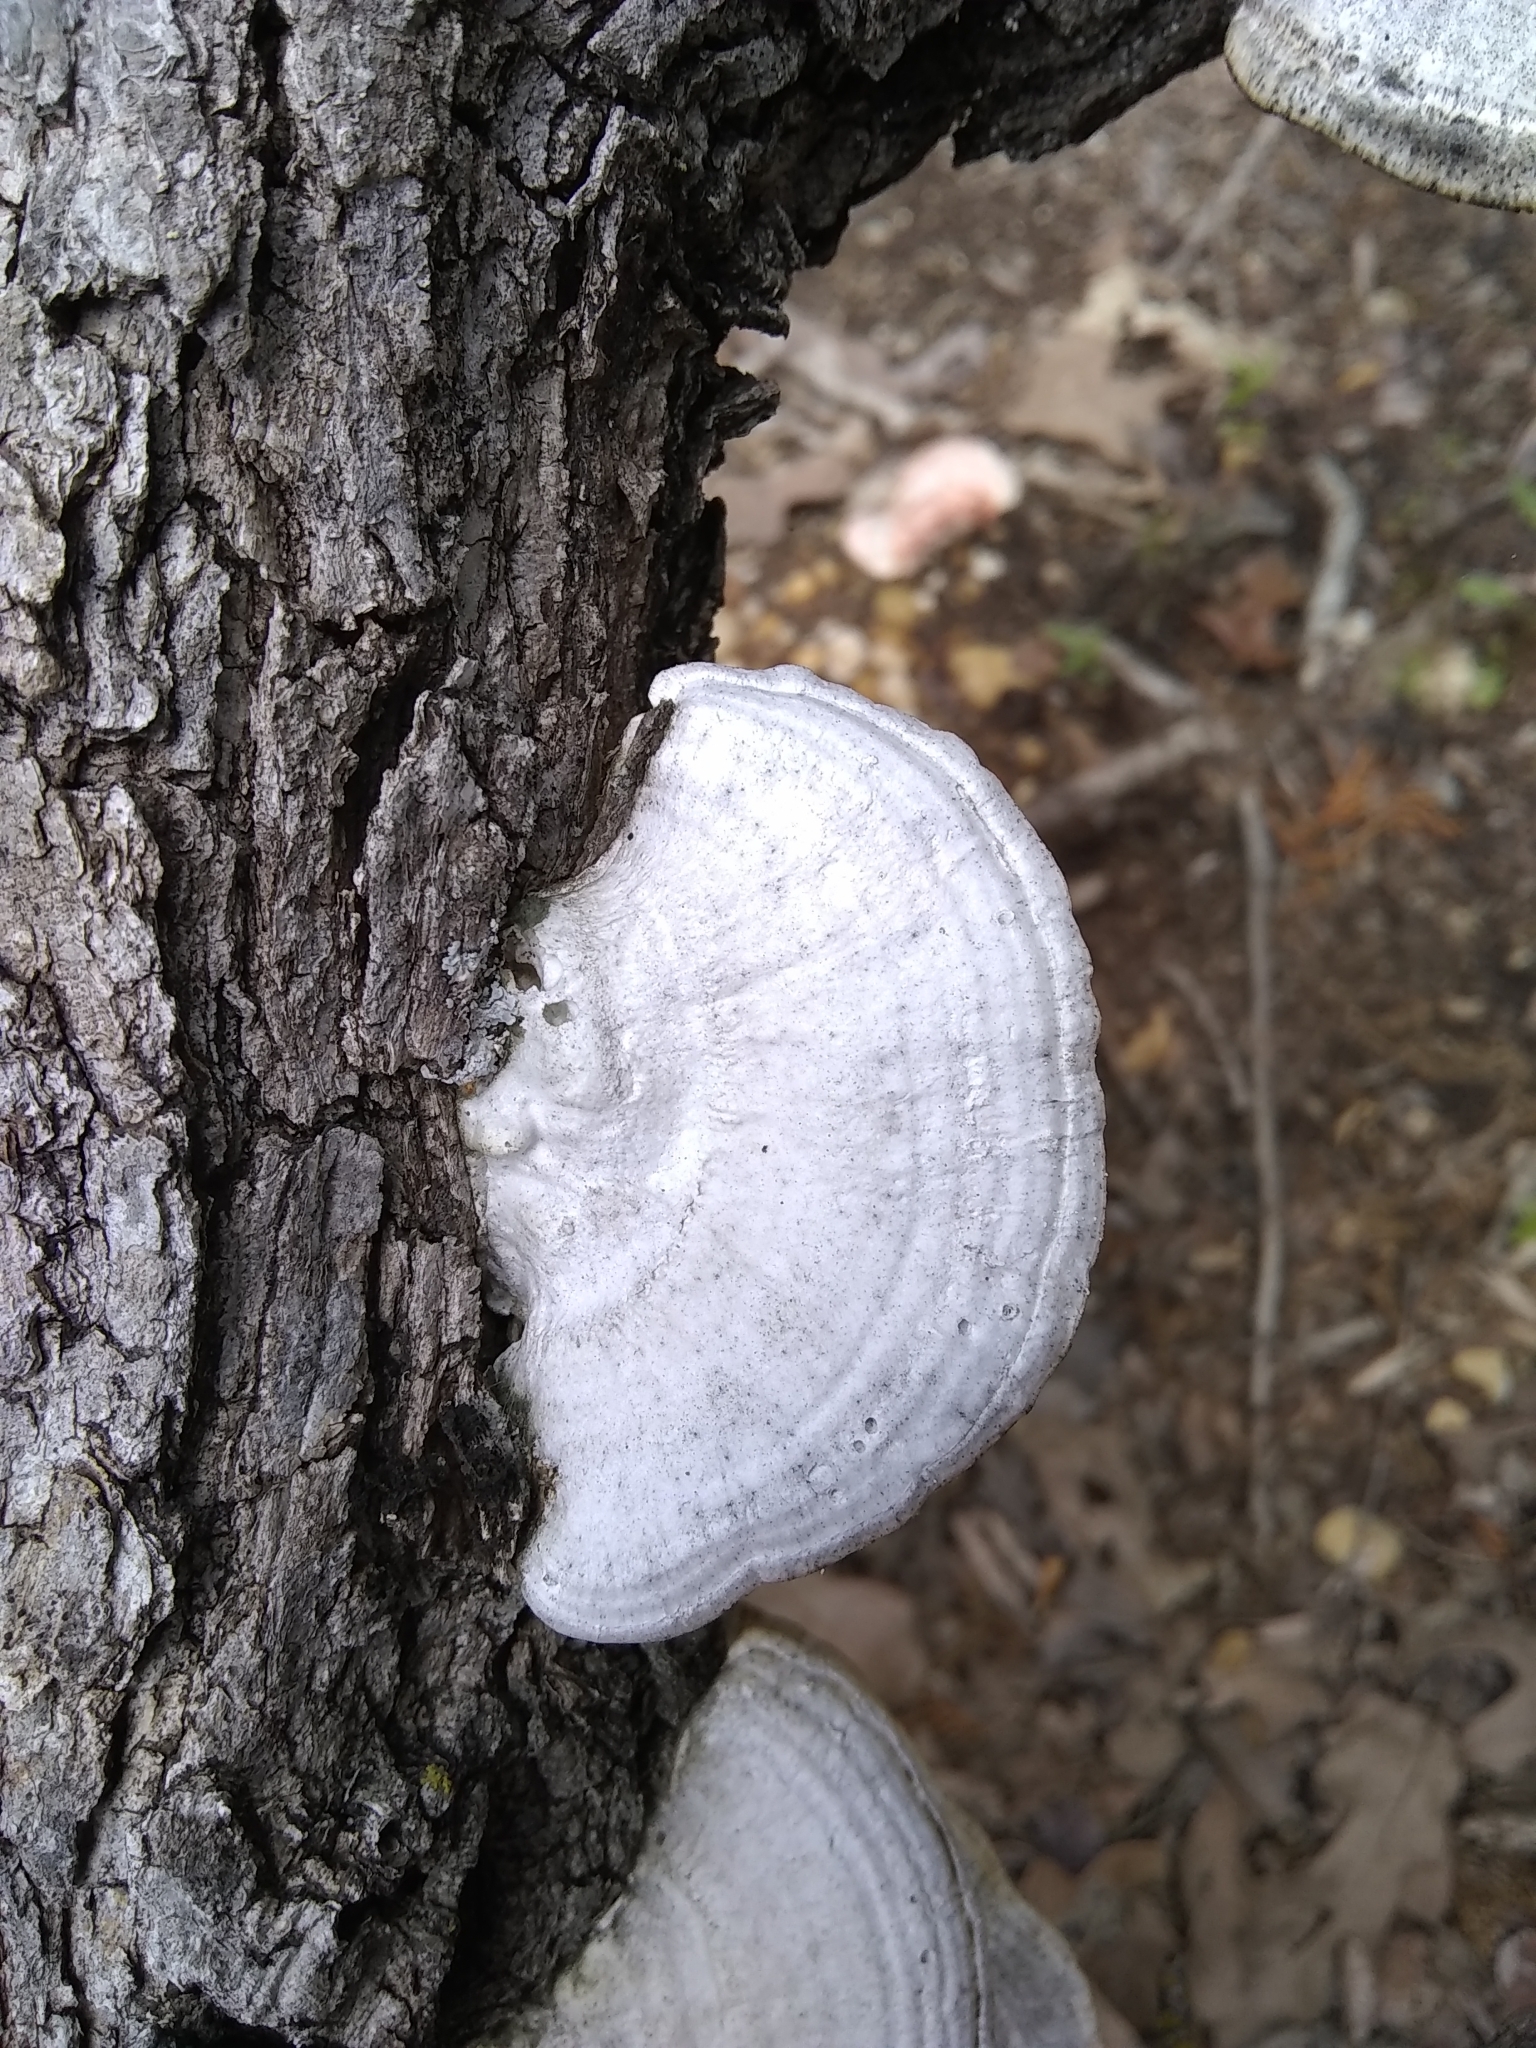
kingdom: Fungi
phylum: Basidiomycota
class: Agaricomycetes
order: Polyporales
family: Polyporaceae
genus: Trametes
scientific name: Trametes lactinea
